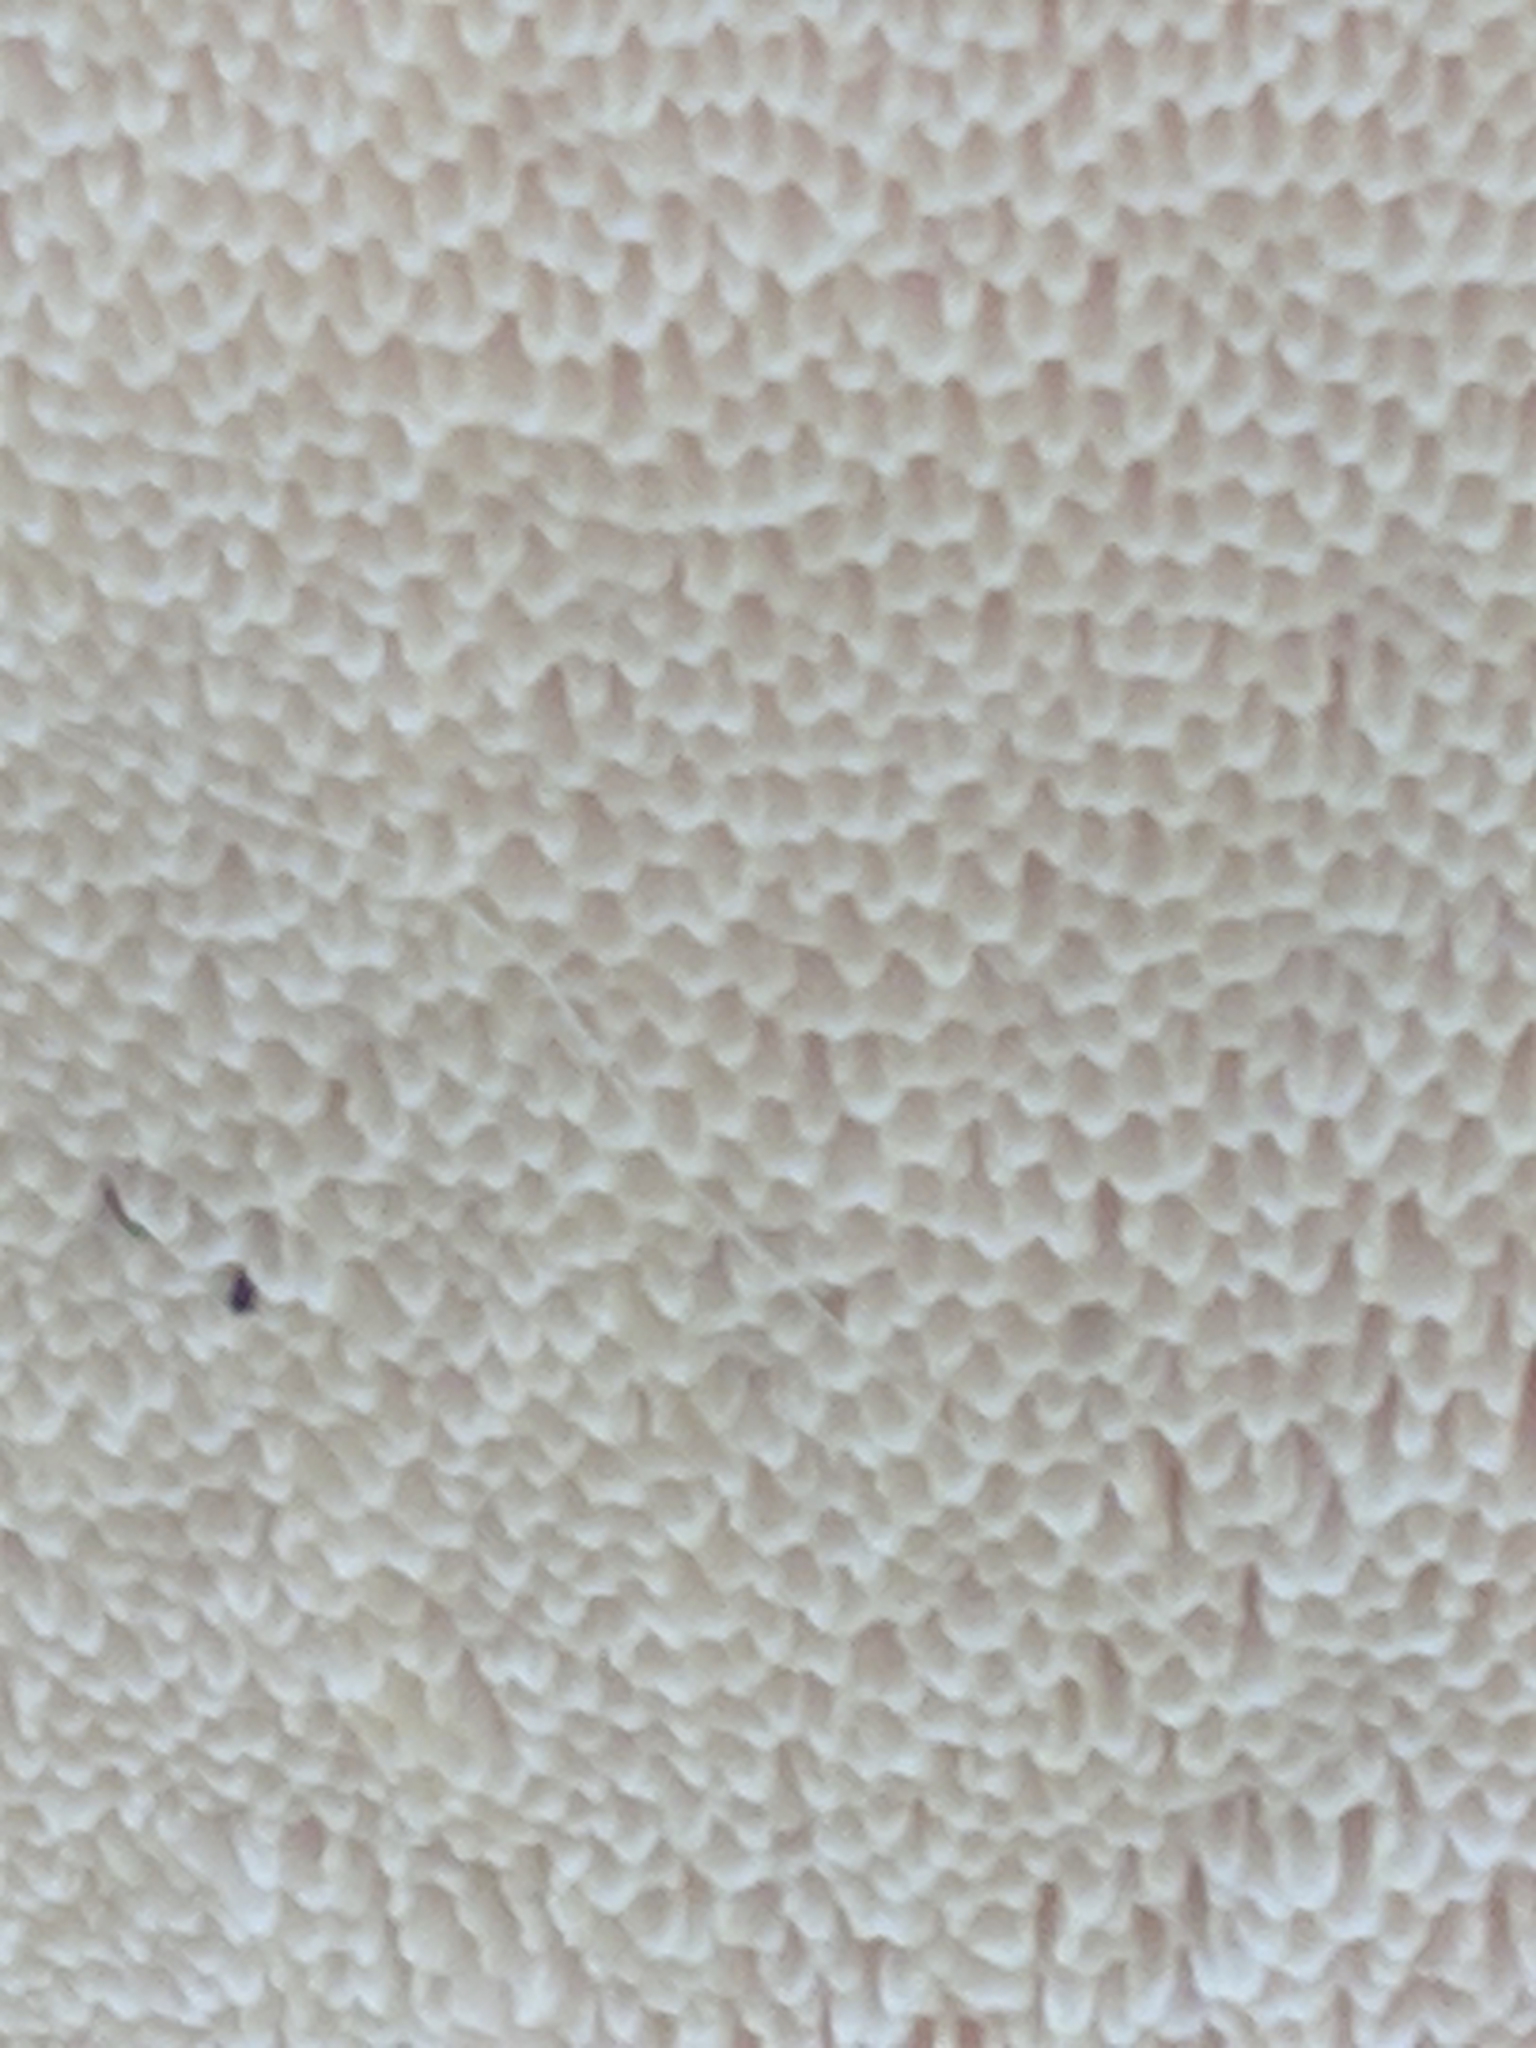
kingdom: Fungi
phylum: Basidiomycota
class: Agaricomycetes
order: Polyporales
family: Polyporaceae
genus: Cerioporus
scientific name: Cerioporus squamosus
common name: Dryad's saddle
